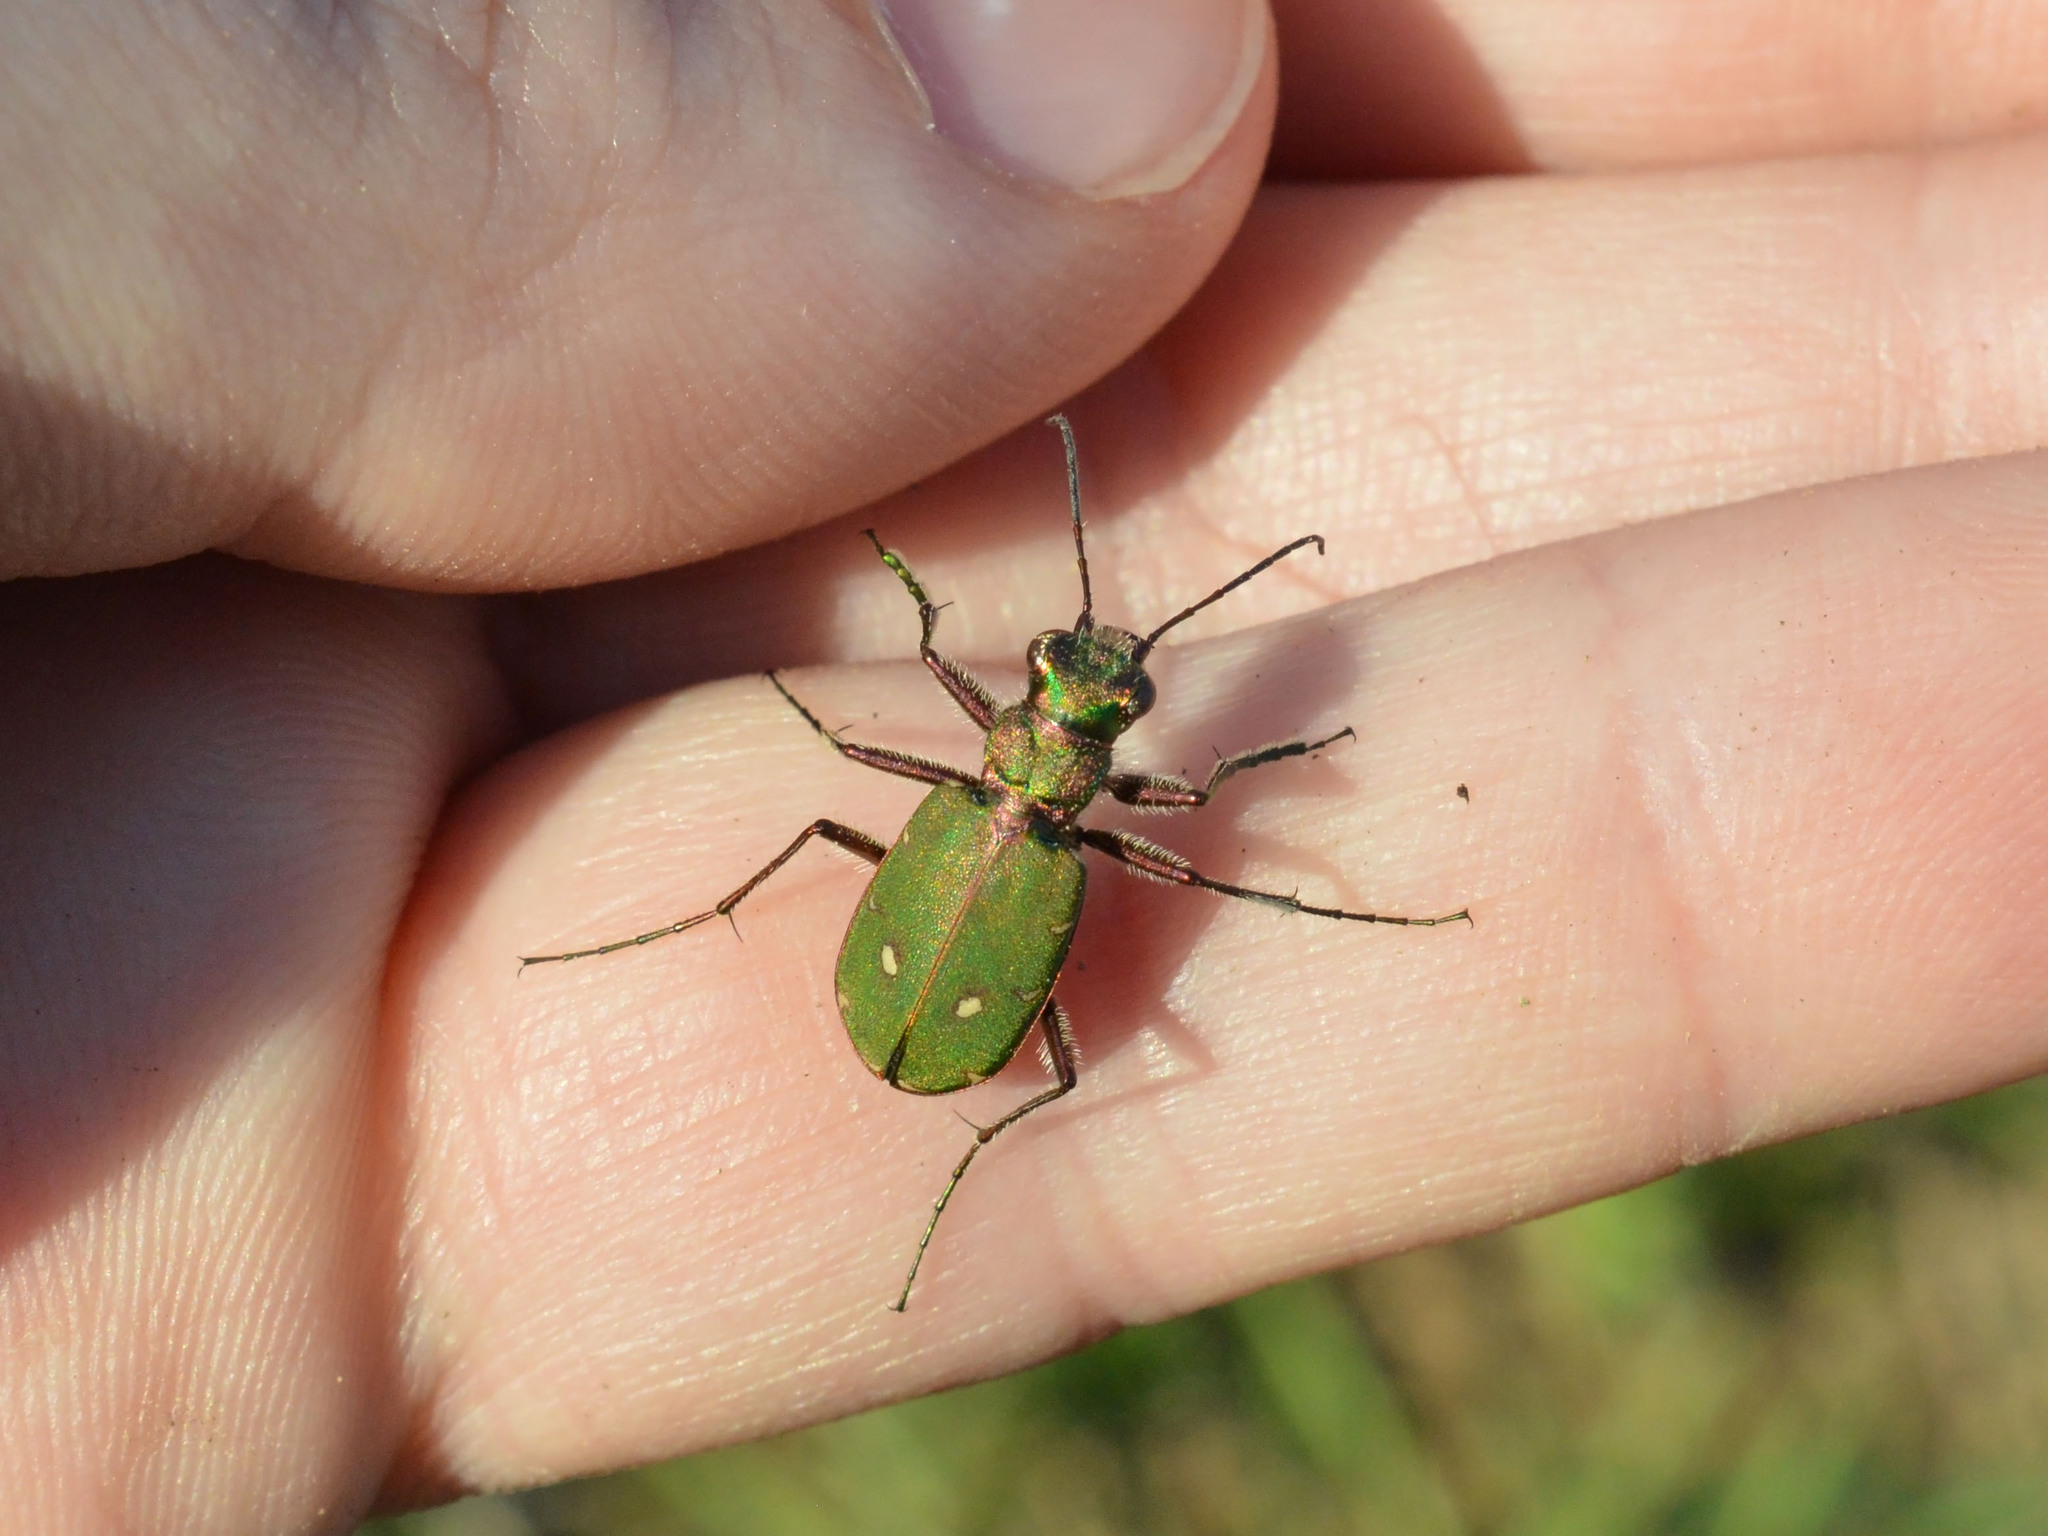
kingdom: Animalia
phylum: Arthropoda
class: Insecta
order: Coleoptera
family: Carabidae
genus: Cicindela
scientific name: Cicindela campestris
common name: Common tiger beetle
